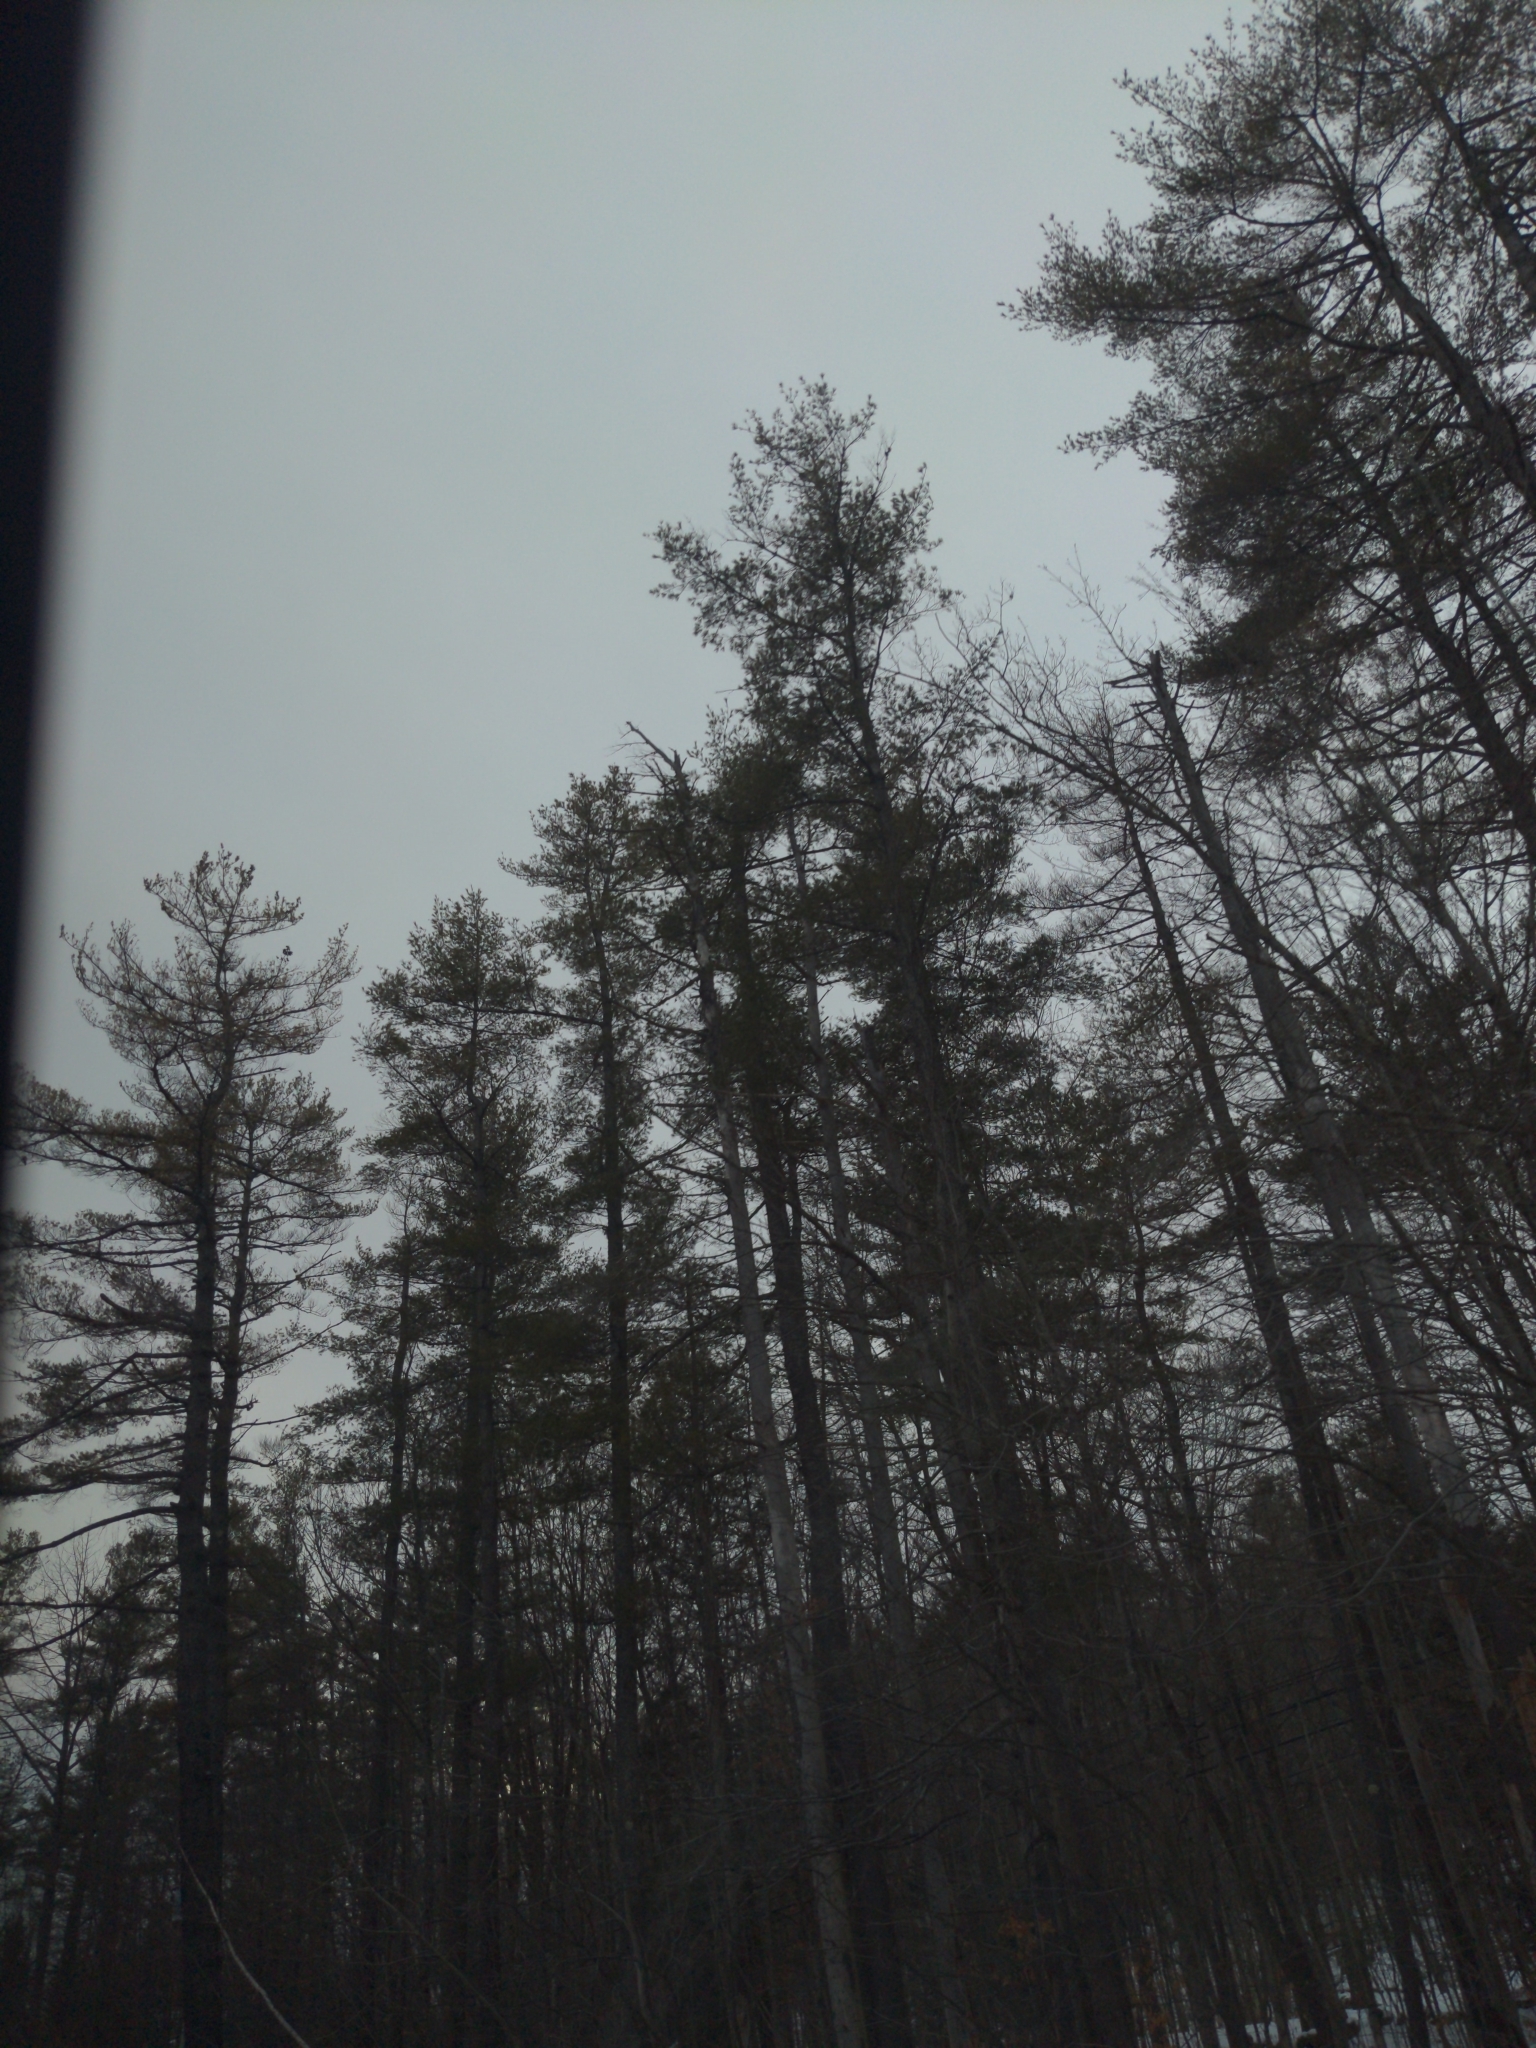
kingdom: Plantae
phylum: Tracheophyta
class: Pinopsida
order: Pinales
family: Pinaceae
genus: Pinus
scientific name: Pinus strobus
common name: Weymouth pine
